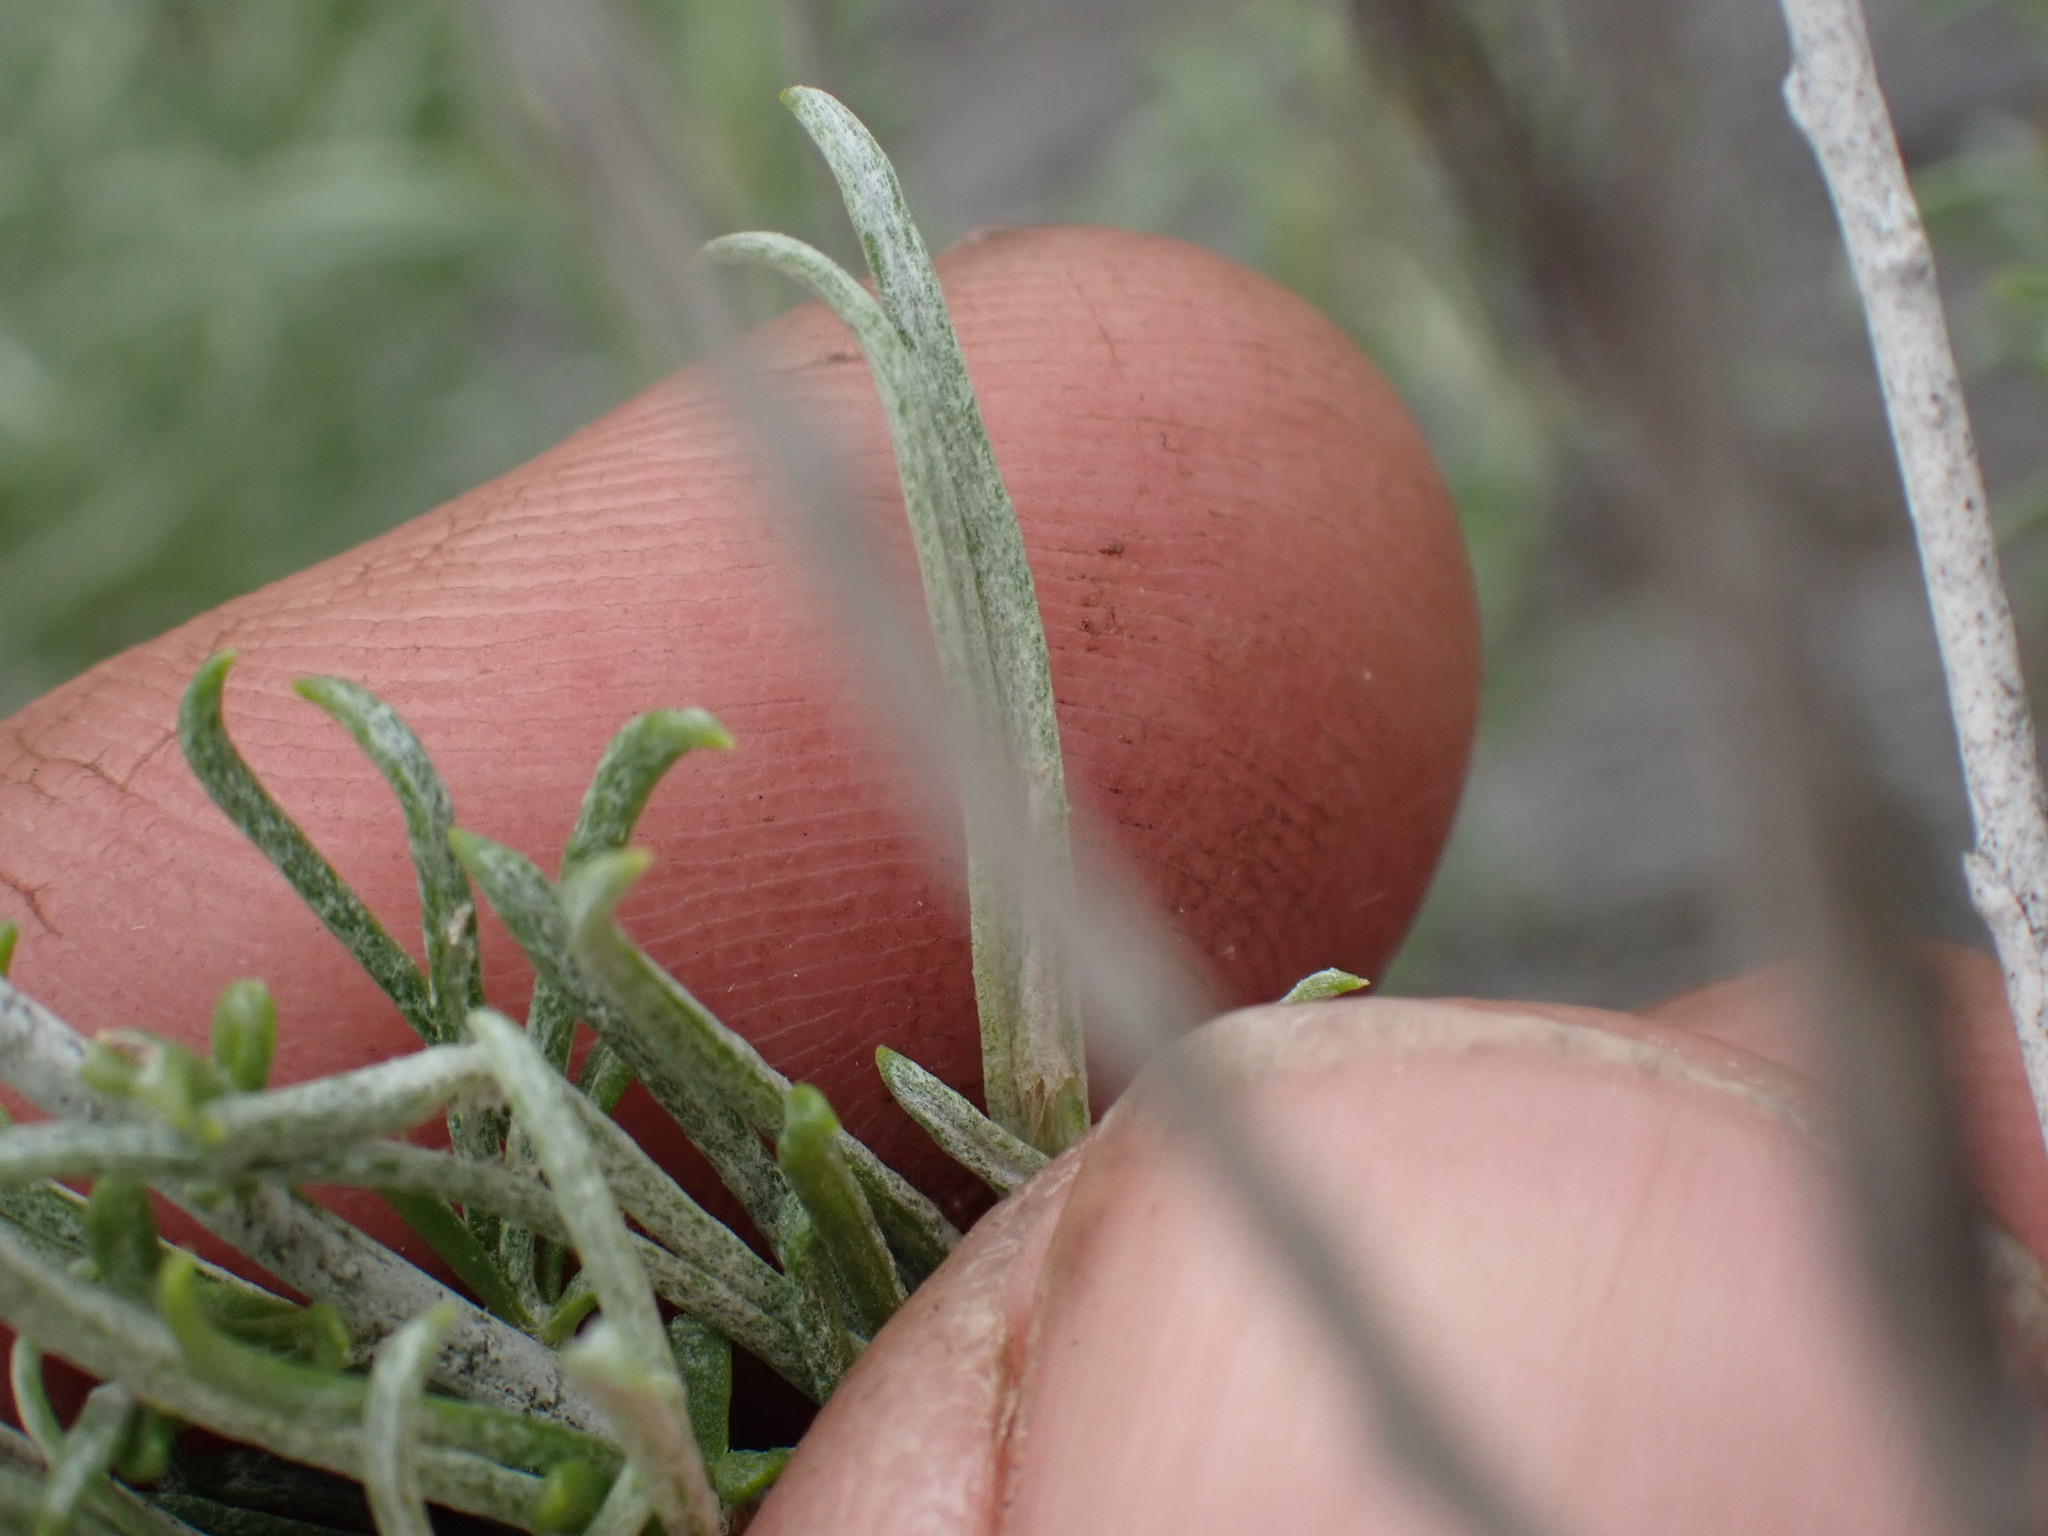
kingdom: Plantae
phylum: Tracheophyta
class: Magnoliopsida
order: Asterales
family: Asteraceae
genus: Ericameria
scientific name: Ericameria nauseosa
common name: Rubber rabbitbrush
